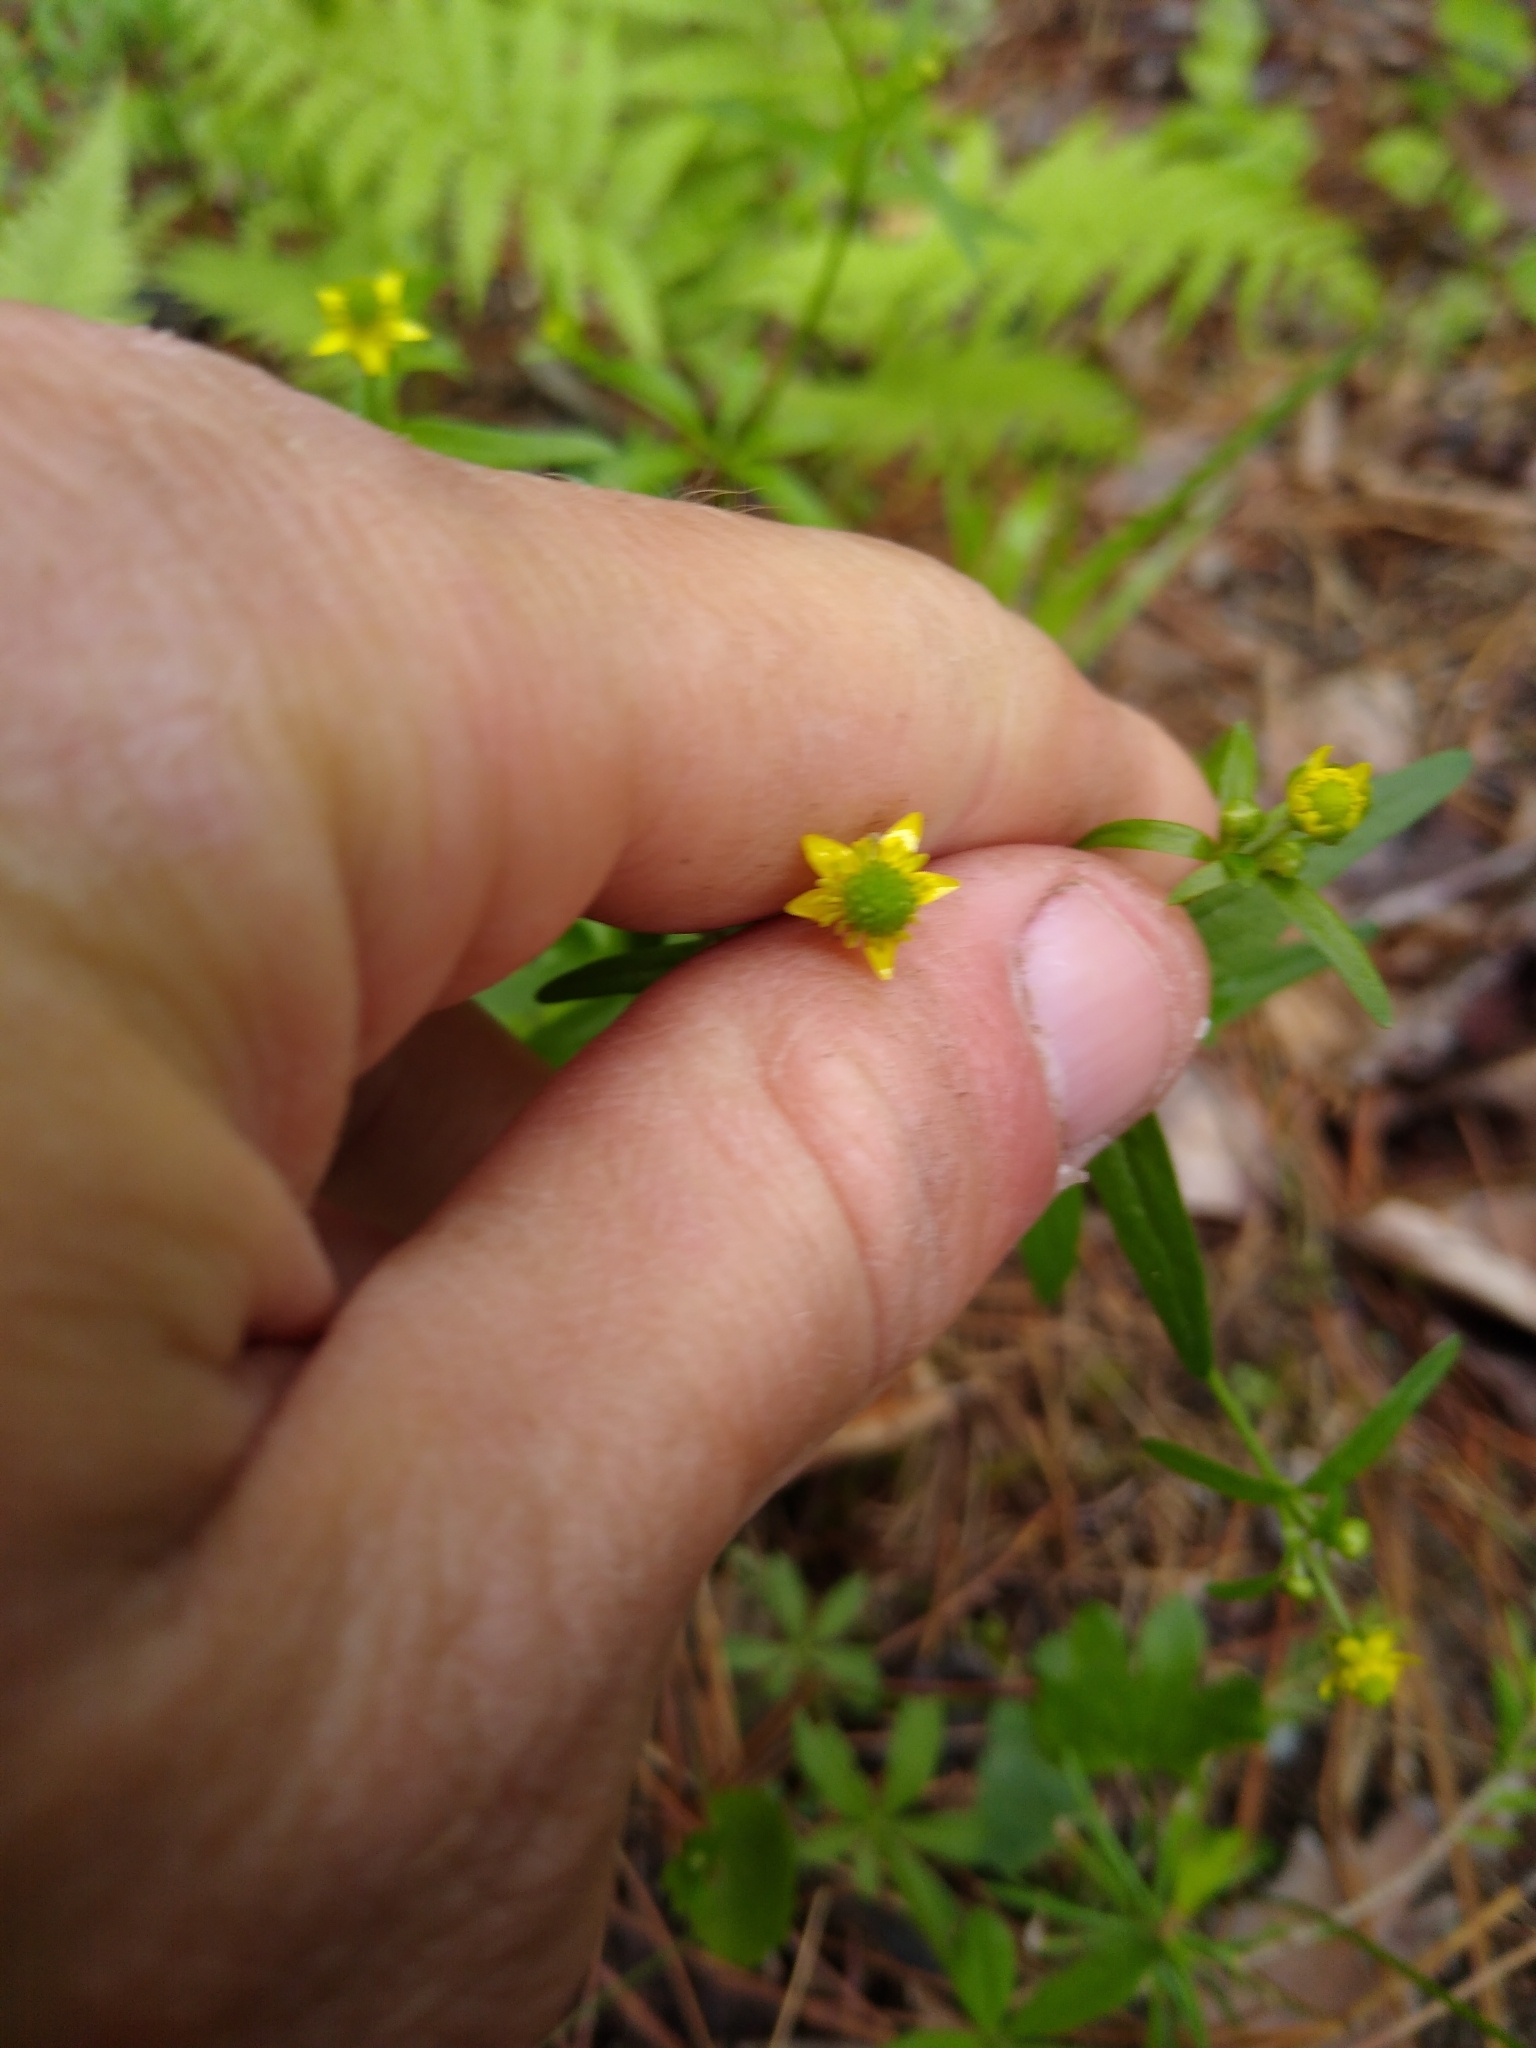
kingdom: Plantae
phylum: Tracheophyta
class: Magnoliopsida
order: Ranunculales
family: Ranunculaceae
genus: Ranunculus
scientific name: Ranunculus abortivus
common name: Early wood buttercup
